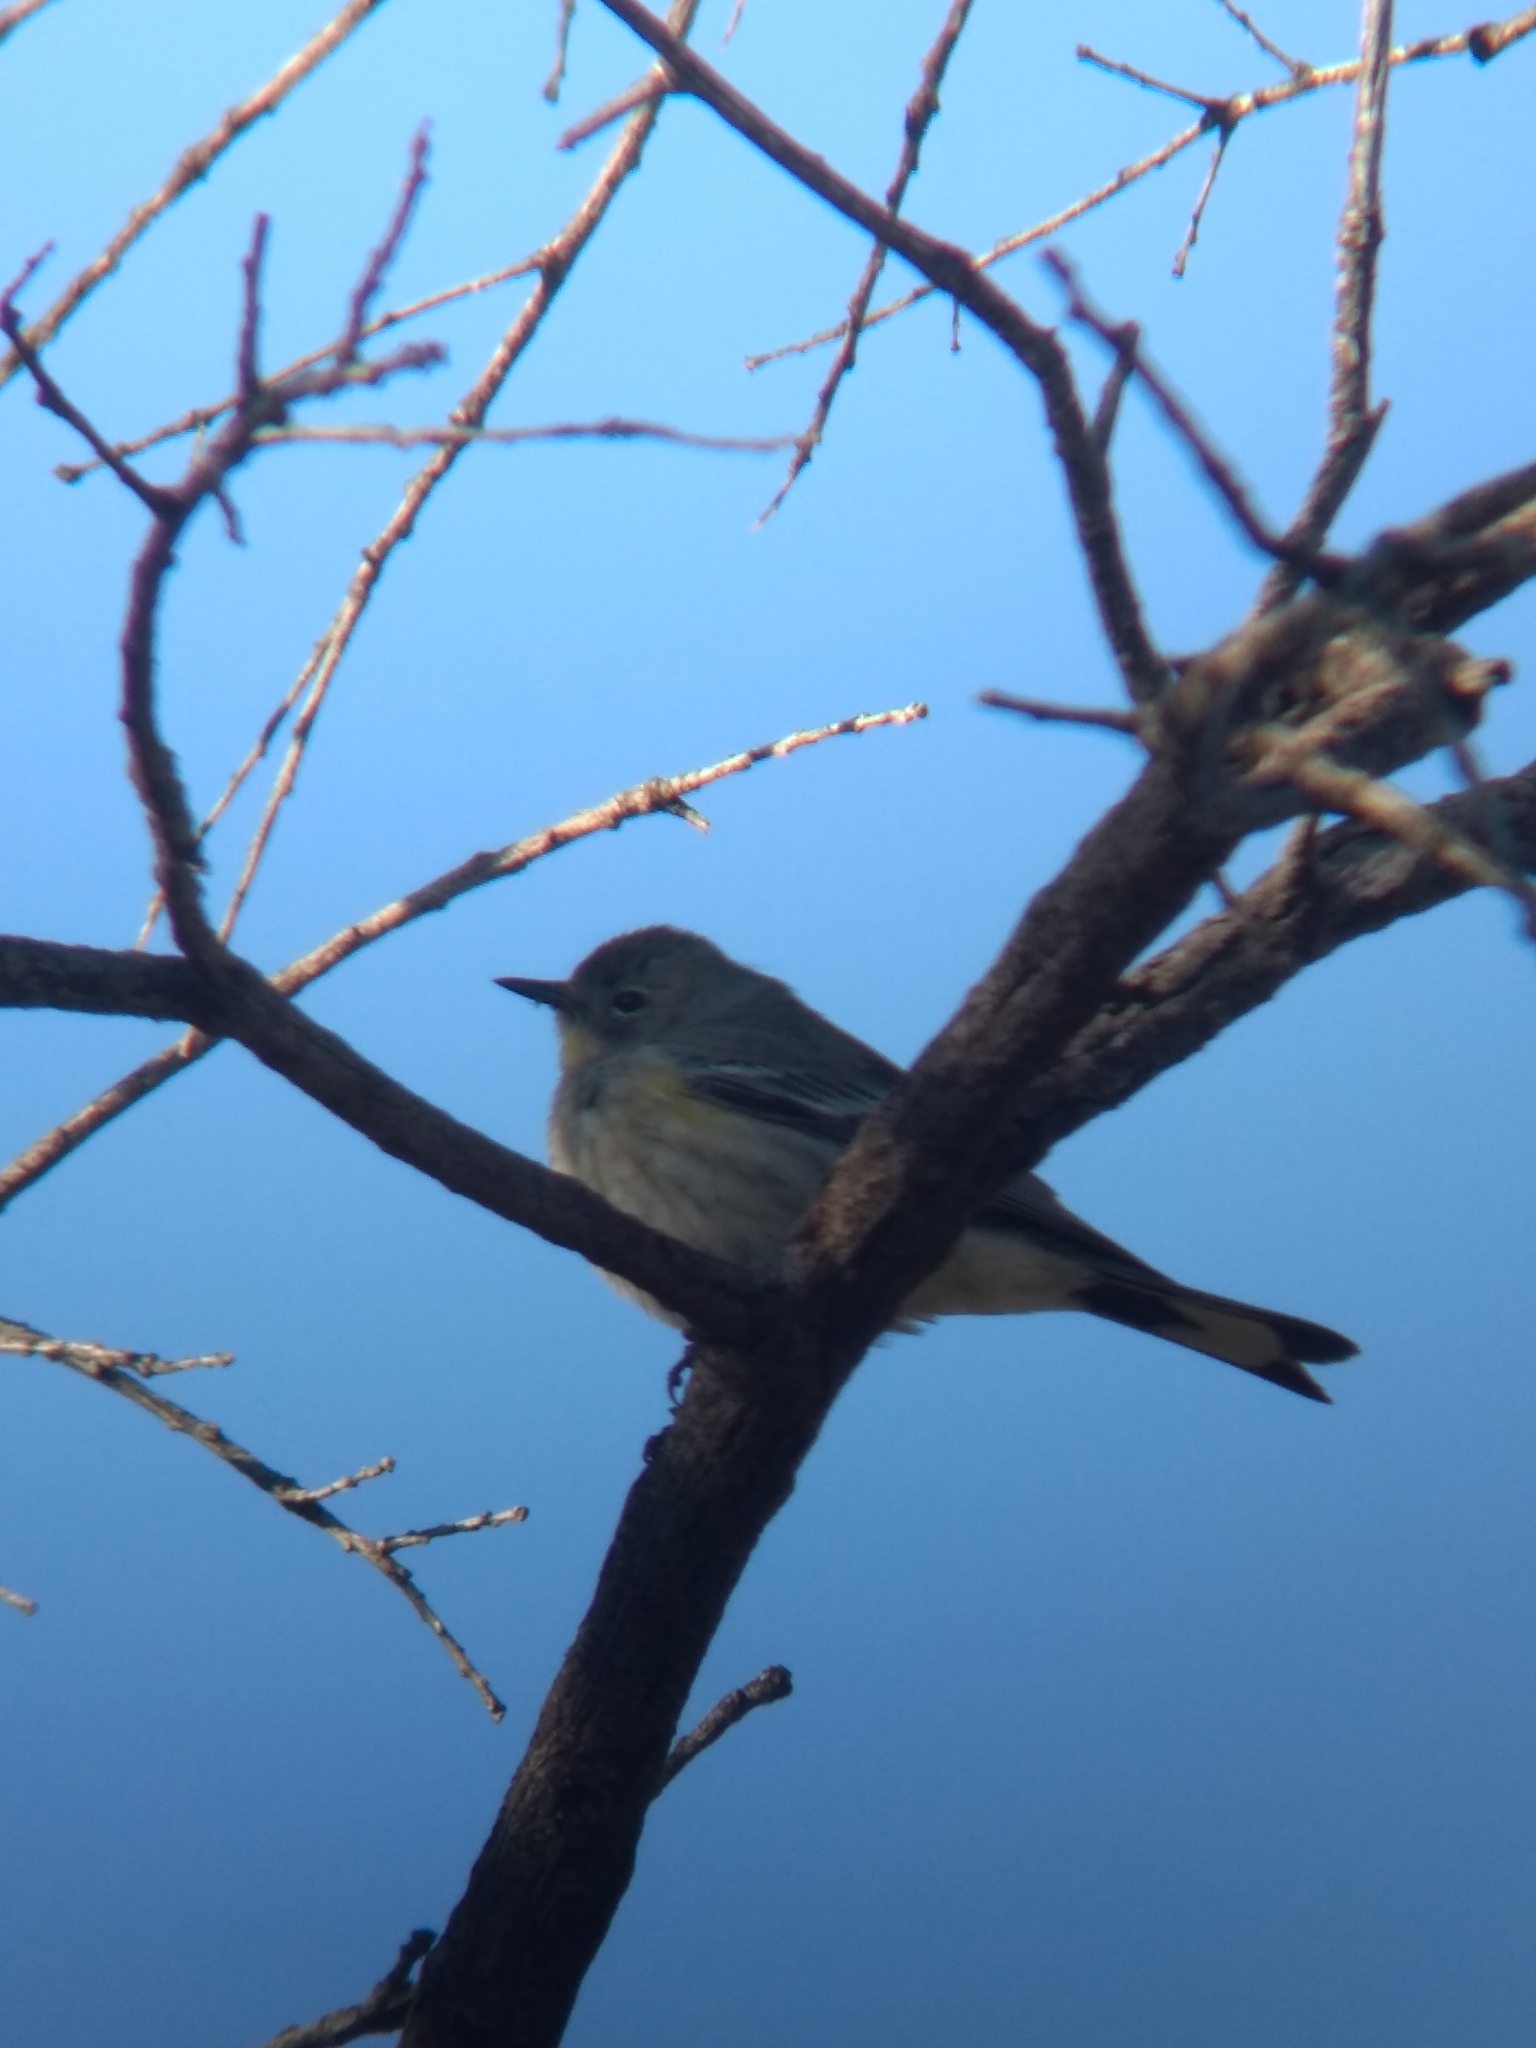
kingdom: Animalia
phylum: Chordata
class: Aves
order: Passeriformes
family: Parulidae
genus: Setophaga
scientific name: Setophaga coronata
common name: Myrtle warbler
